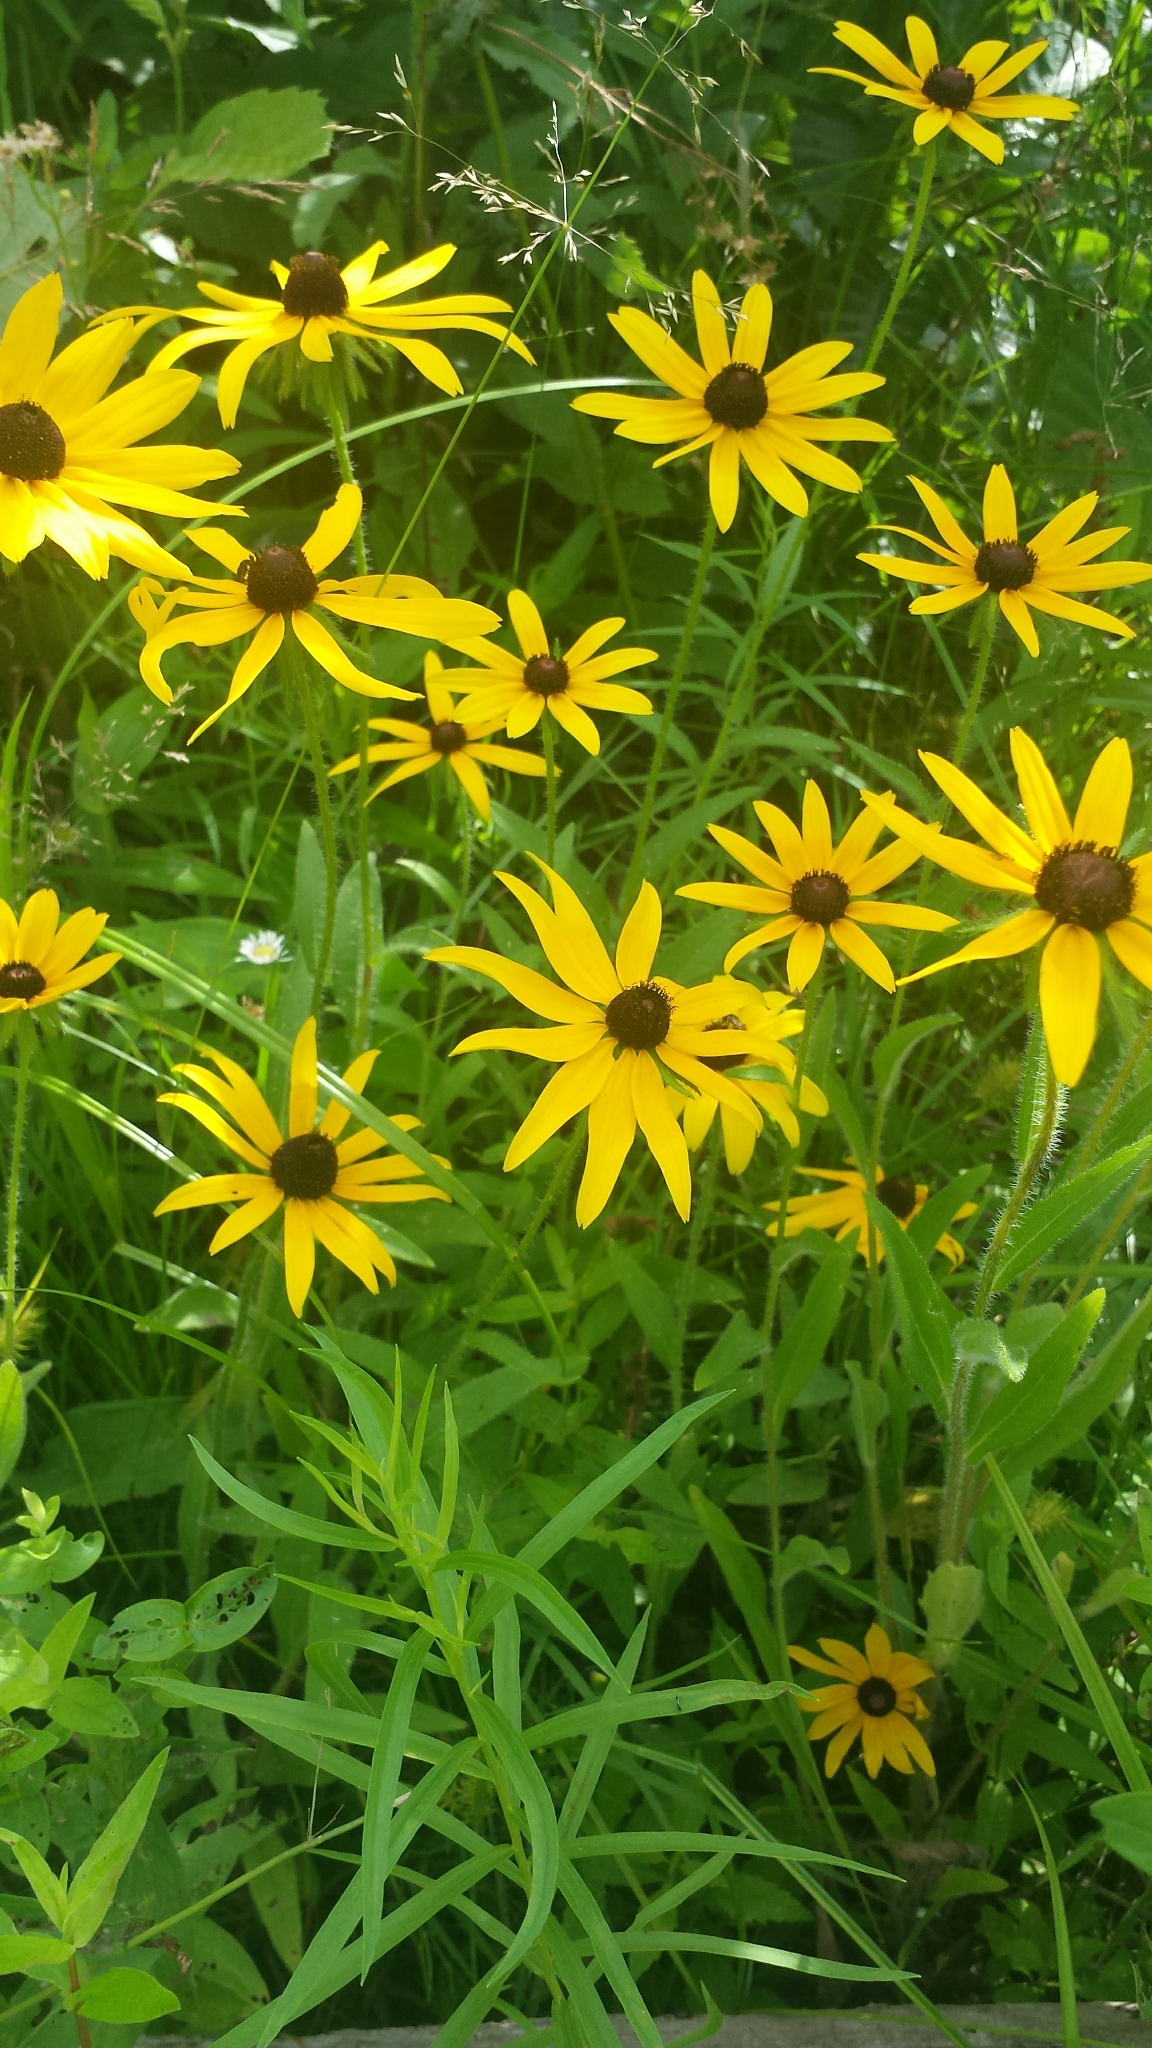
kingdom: Plantae
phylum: Tracheophyta
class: Magnoliopsida
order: Asterales
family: Asteraceae
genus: Rudbeckia
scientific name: Rudbeckia hirta
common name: Black-eyed-susan
